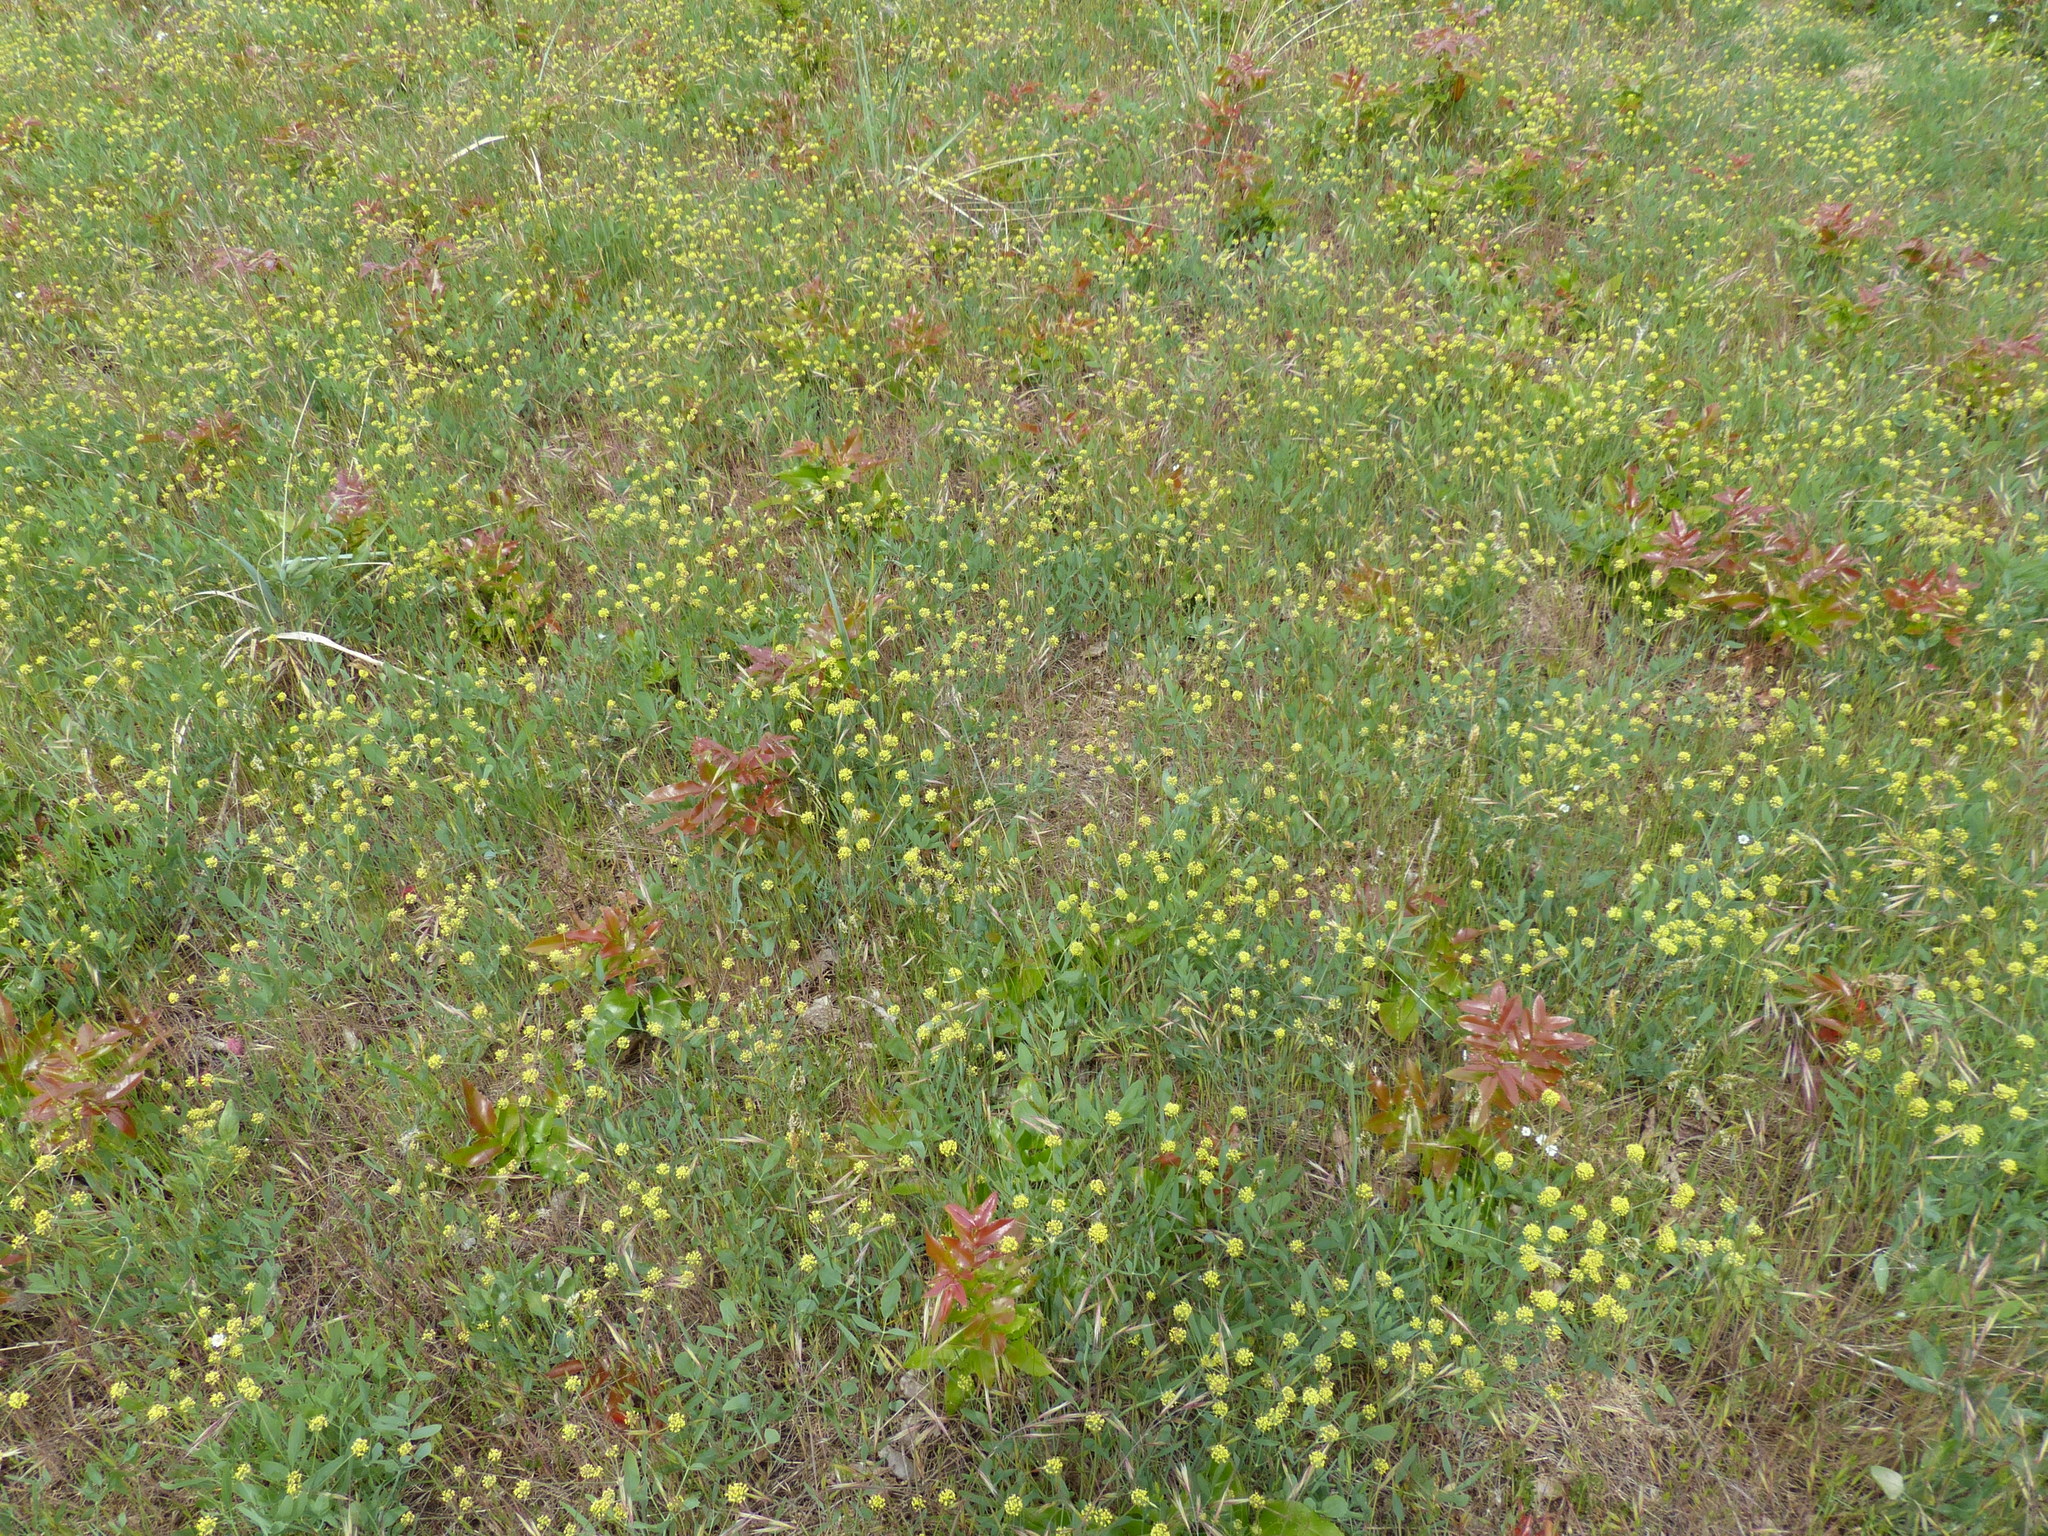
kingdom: Plantae
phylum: Tracheophyta
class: Magnoliopsida
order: Apiales
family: Apiaceae
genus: Lomatium
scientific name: Lomatium nudicaule
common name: Pestle lomatium
